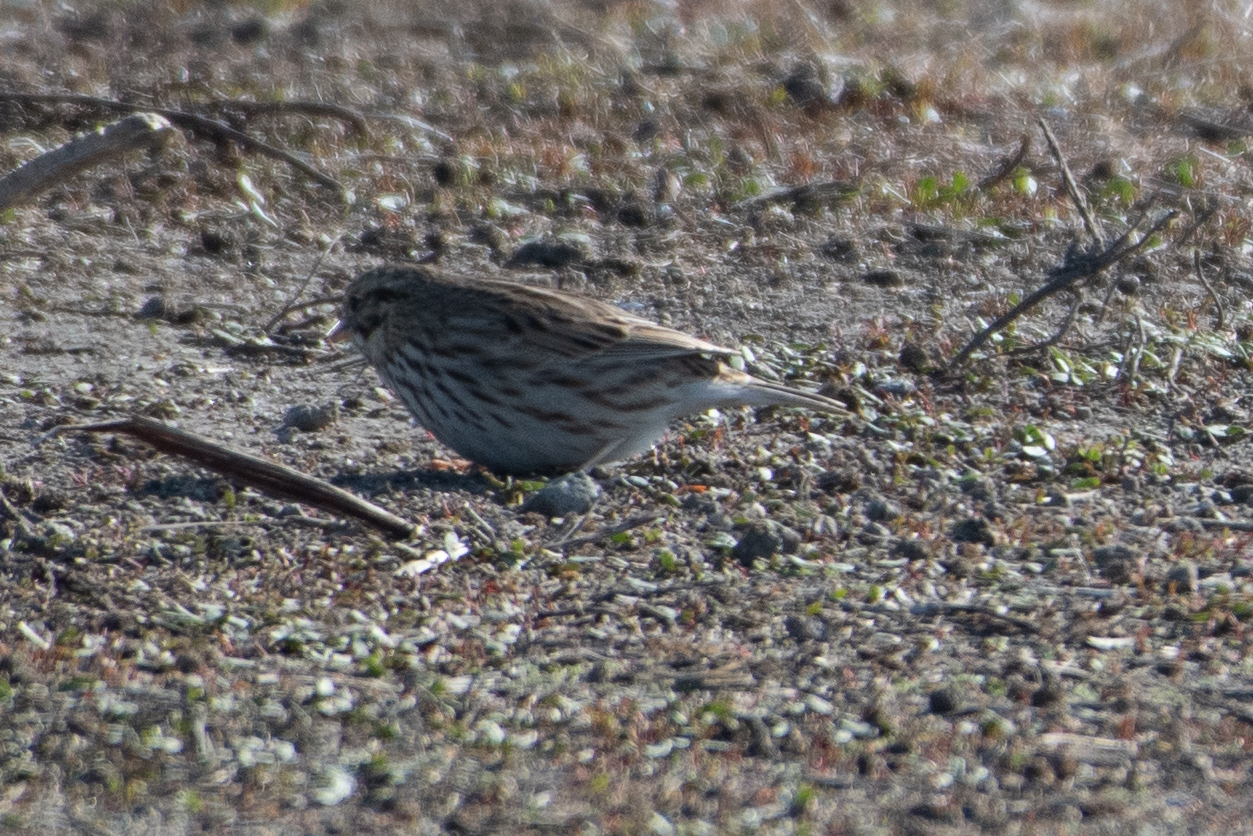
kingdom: Animalia
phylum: Chordata
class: Aves
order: Passeriformes
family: Passerellidae
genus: Passerculus
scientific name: Passerculus sandwichensis
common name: Savannah sparrow
